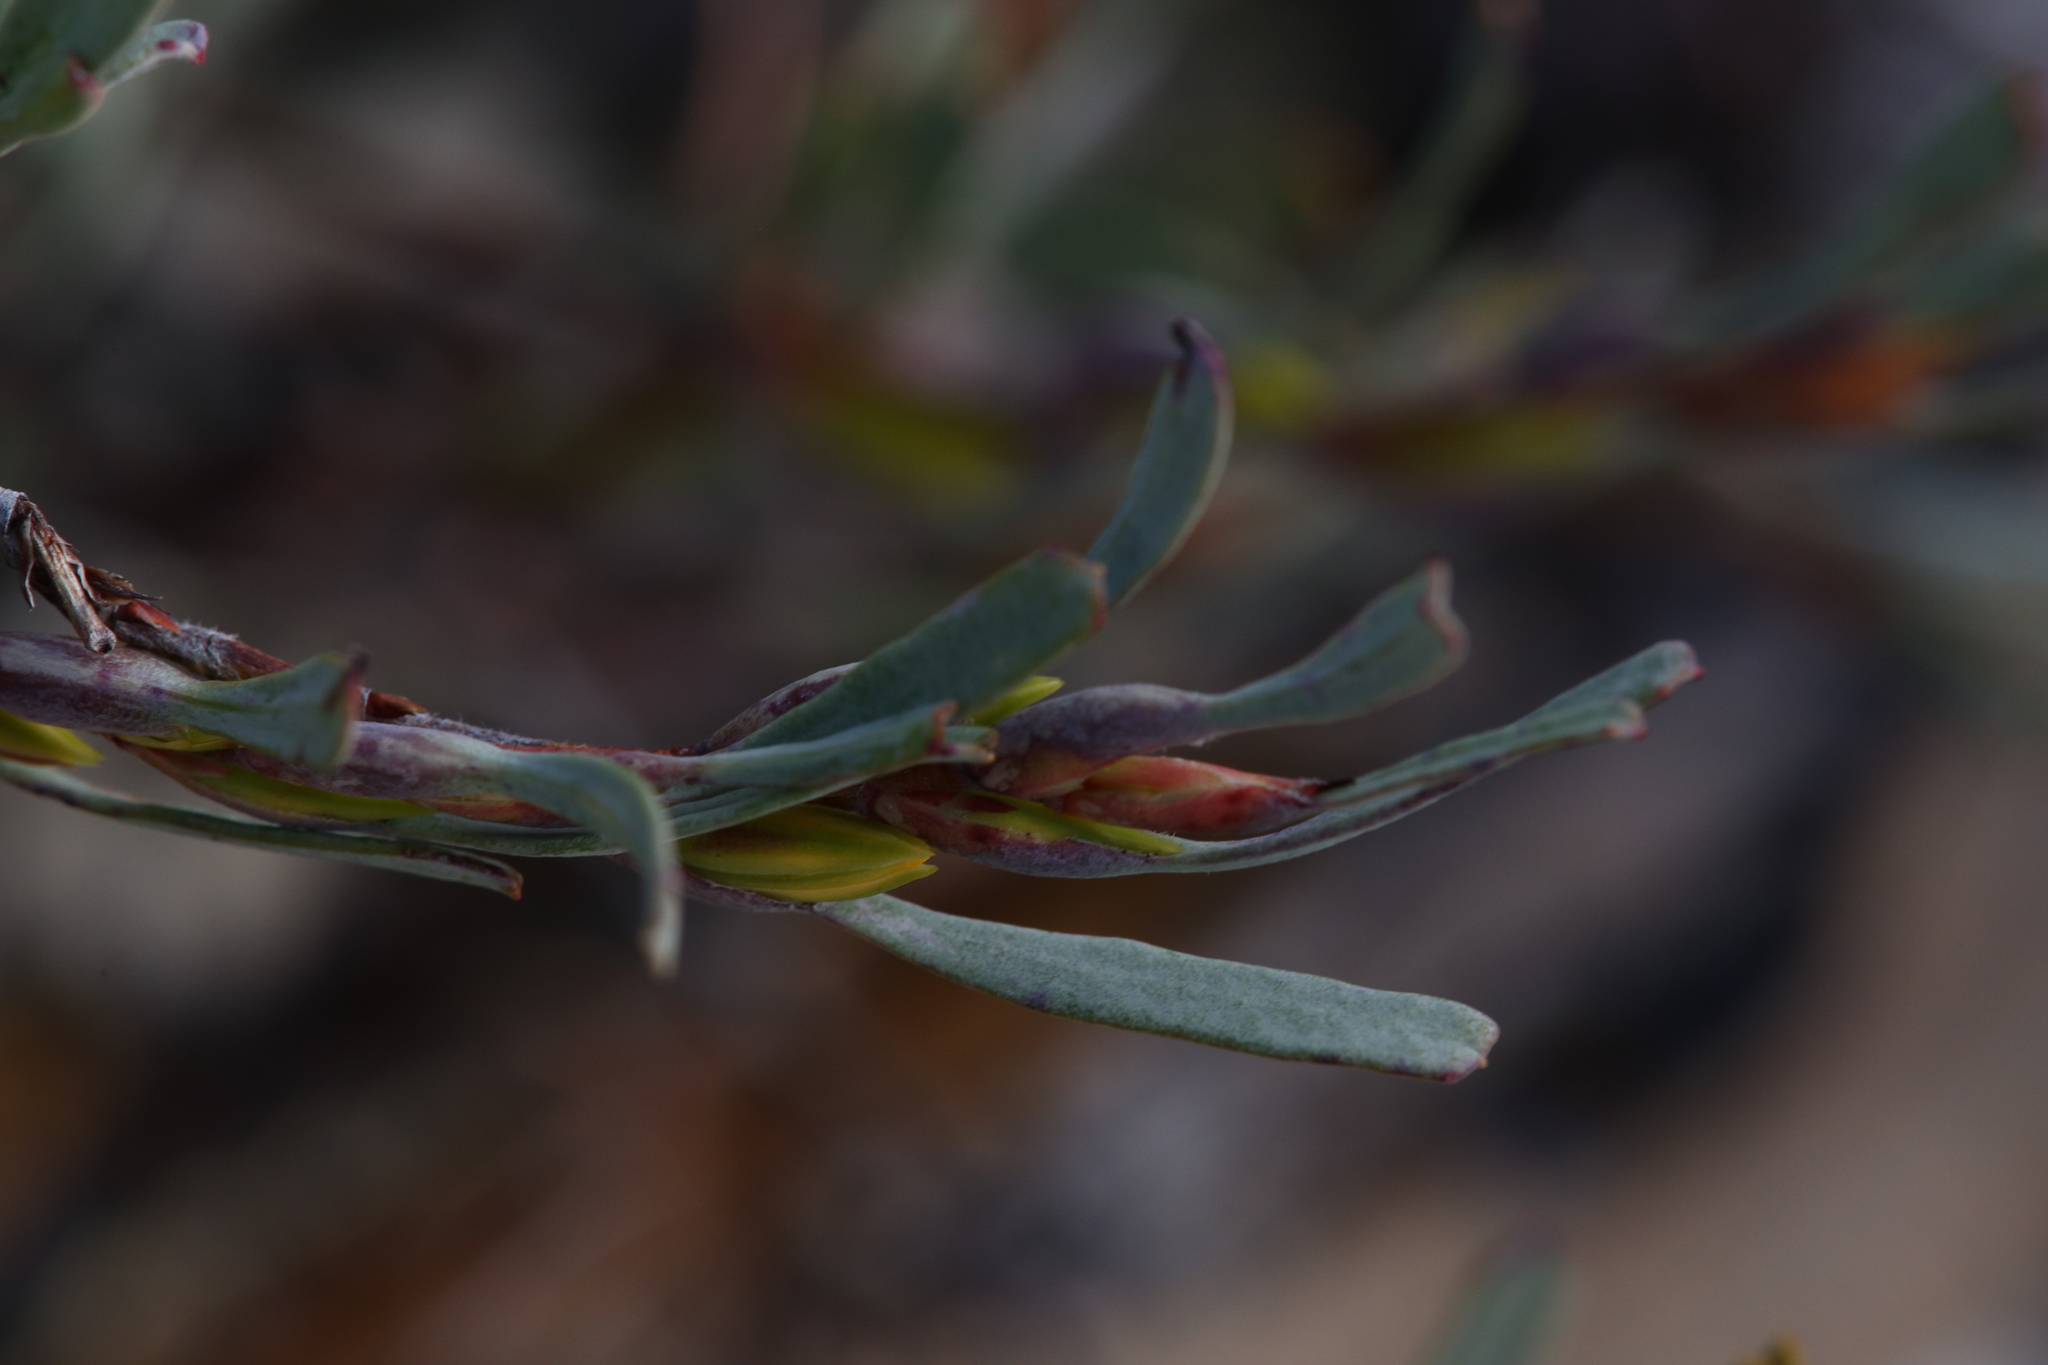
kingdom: Plantae
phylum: Tracheophyta
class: Magnoliopsida
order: Dilleniales
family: Dilleniaceae
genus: Hibbertia
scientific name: Hibbertia subvaginata
